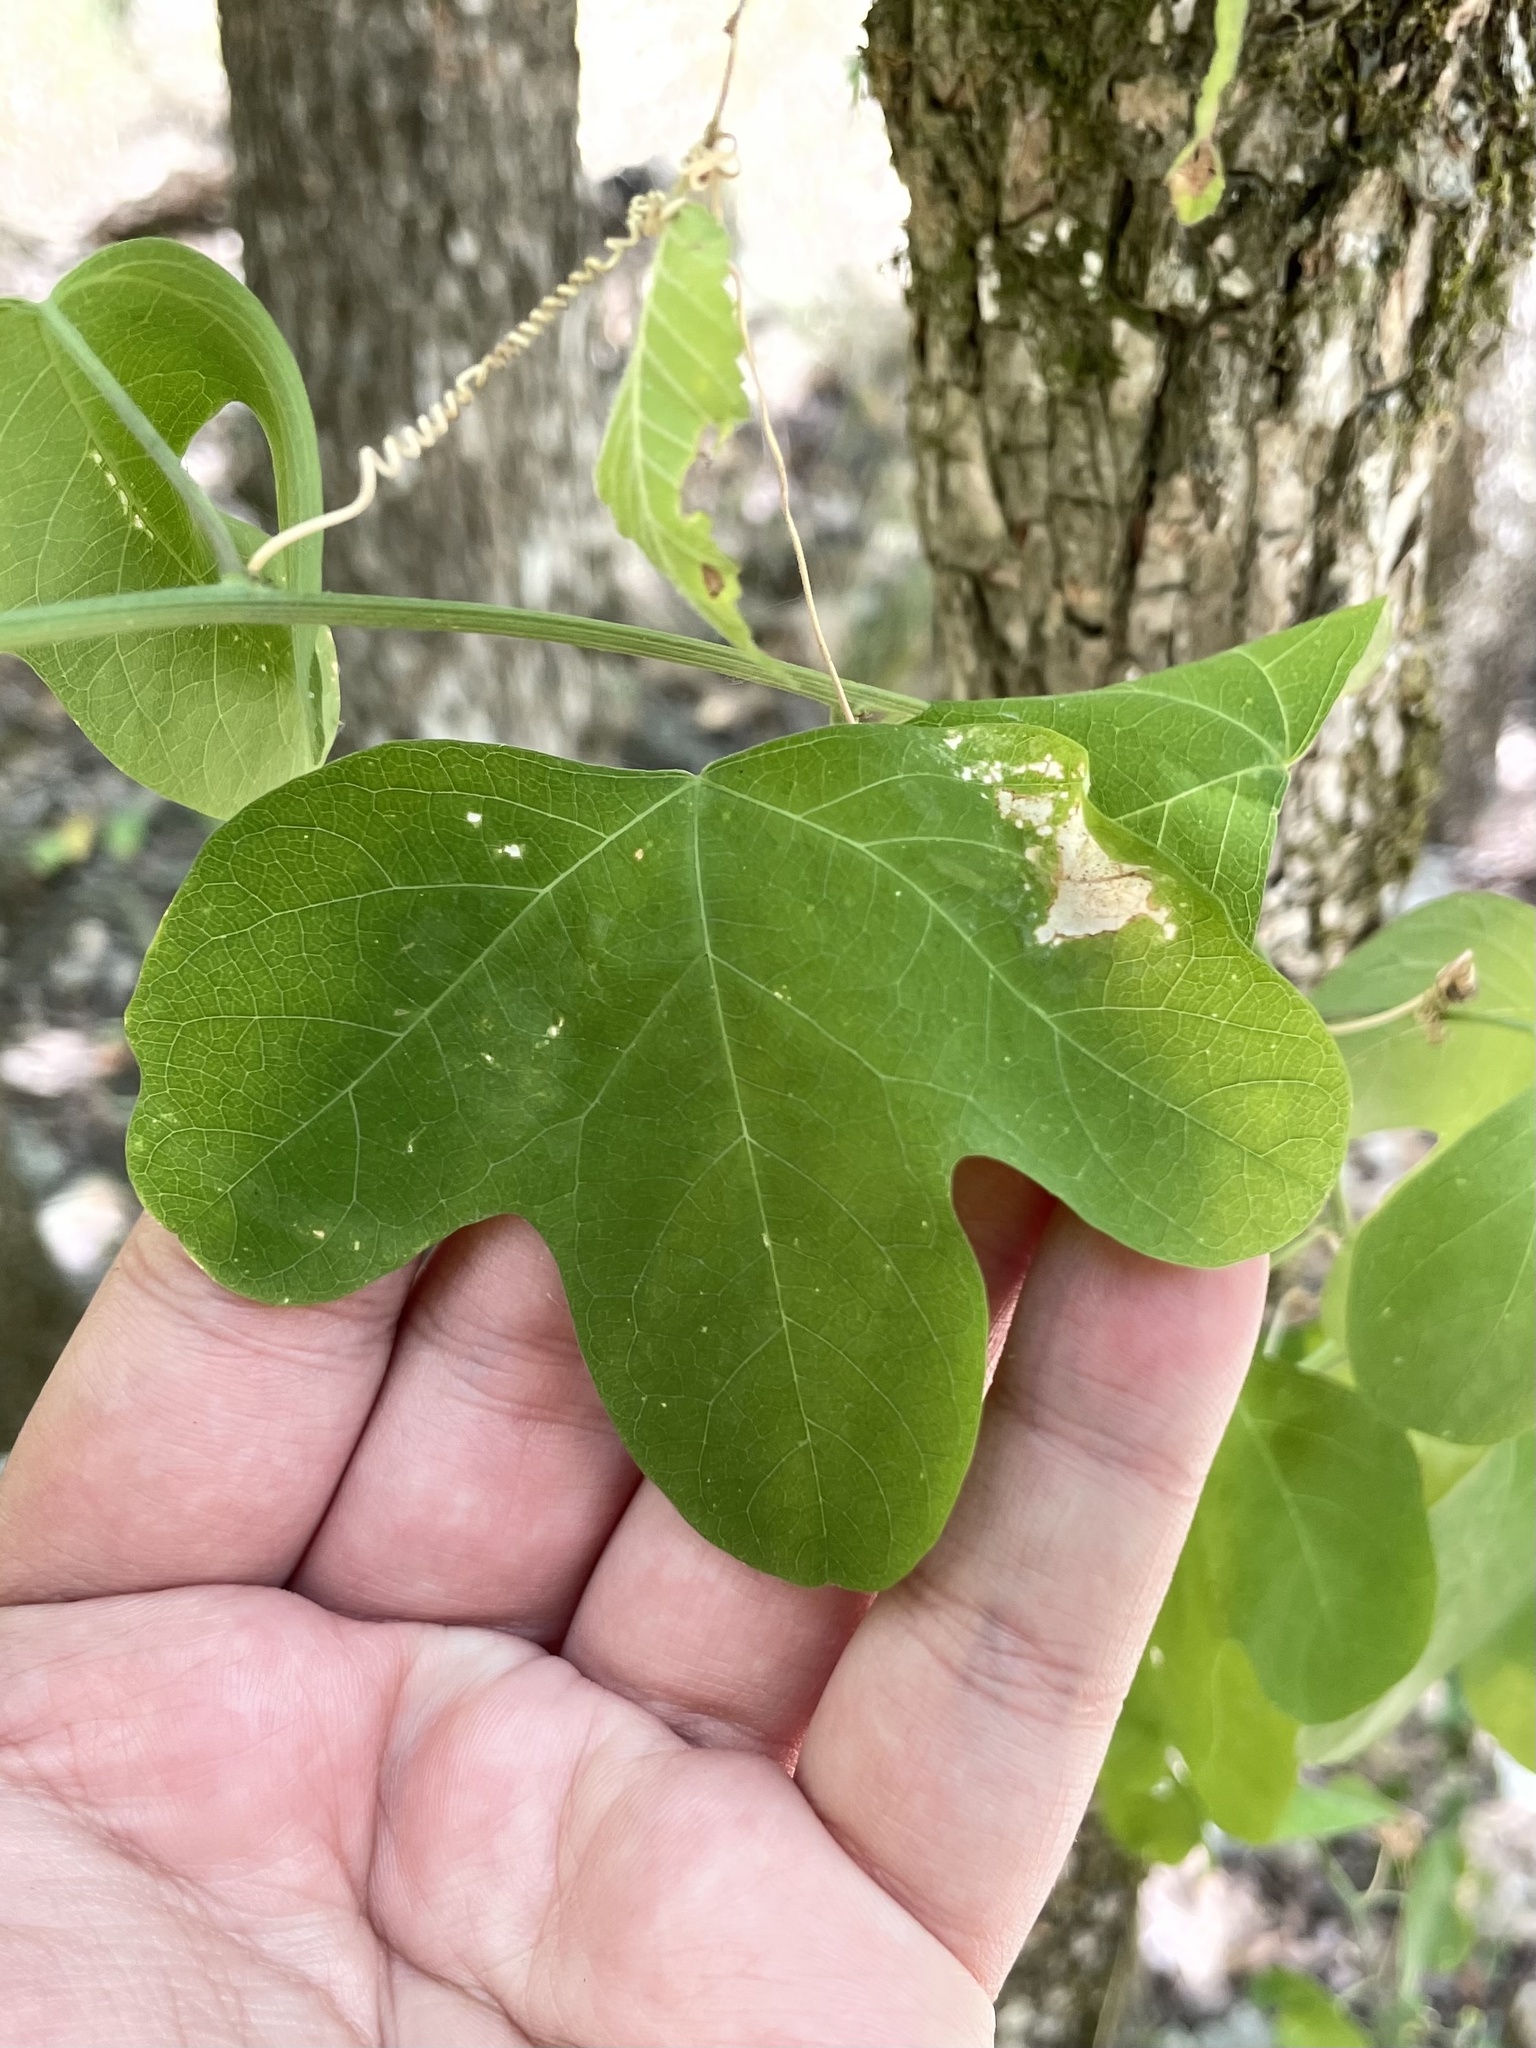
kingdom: Plantae
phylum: Tracheophyta
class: Magnoliopsida
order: Malpighiales
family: Passifloraceae
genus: Passiflora
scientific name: Passiflora affinis
